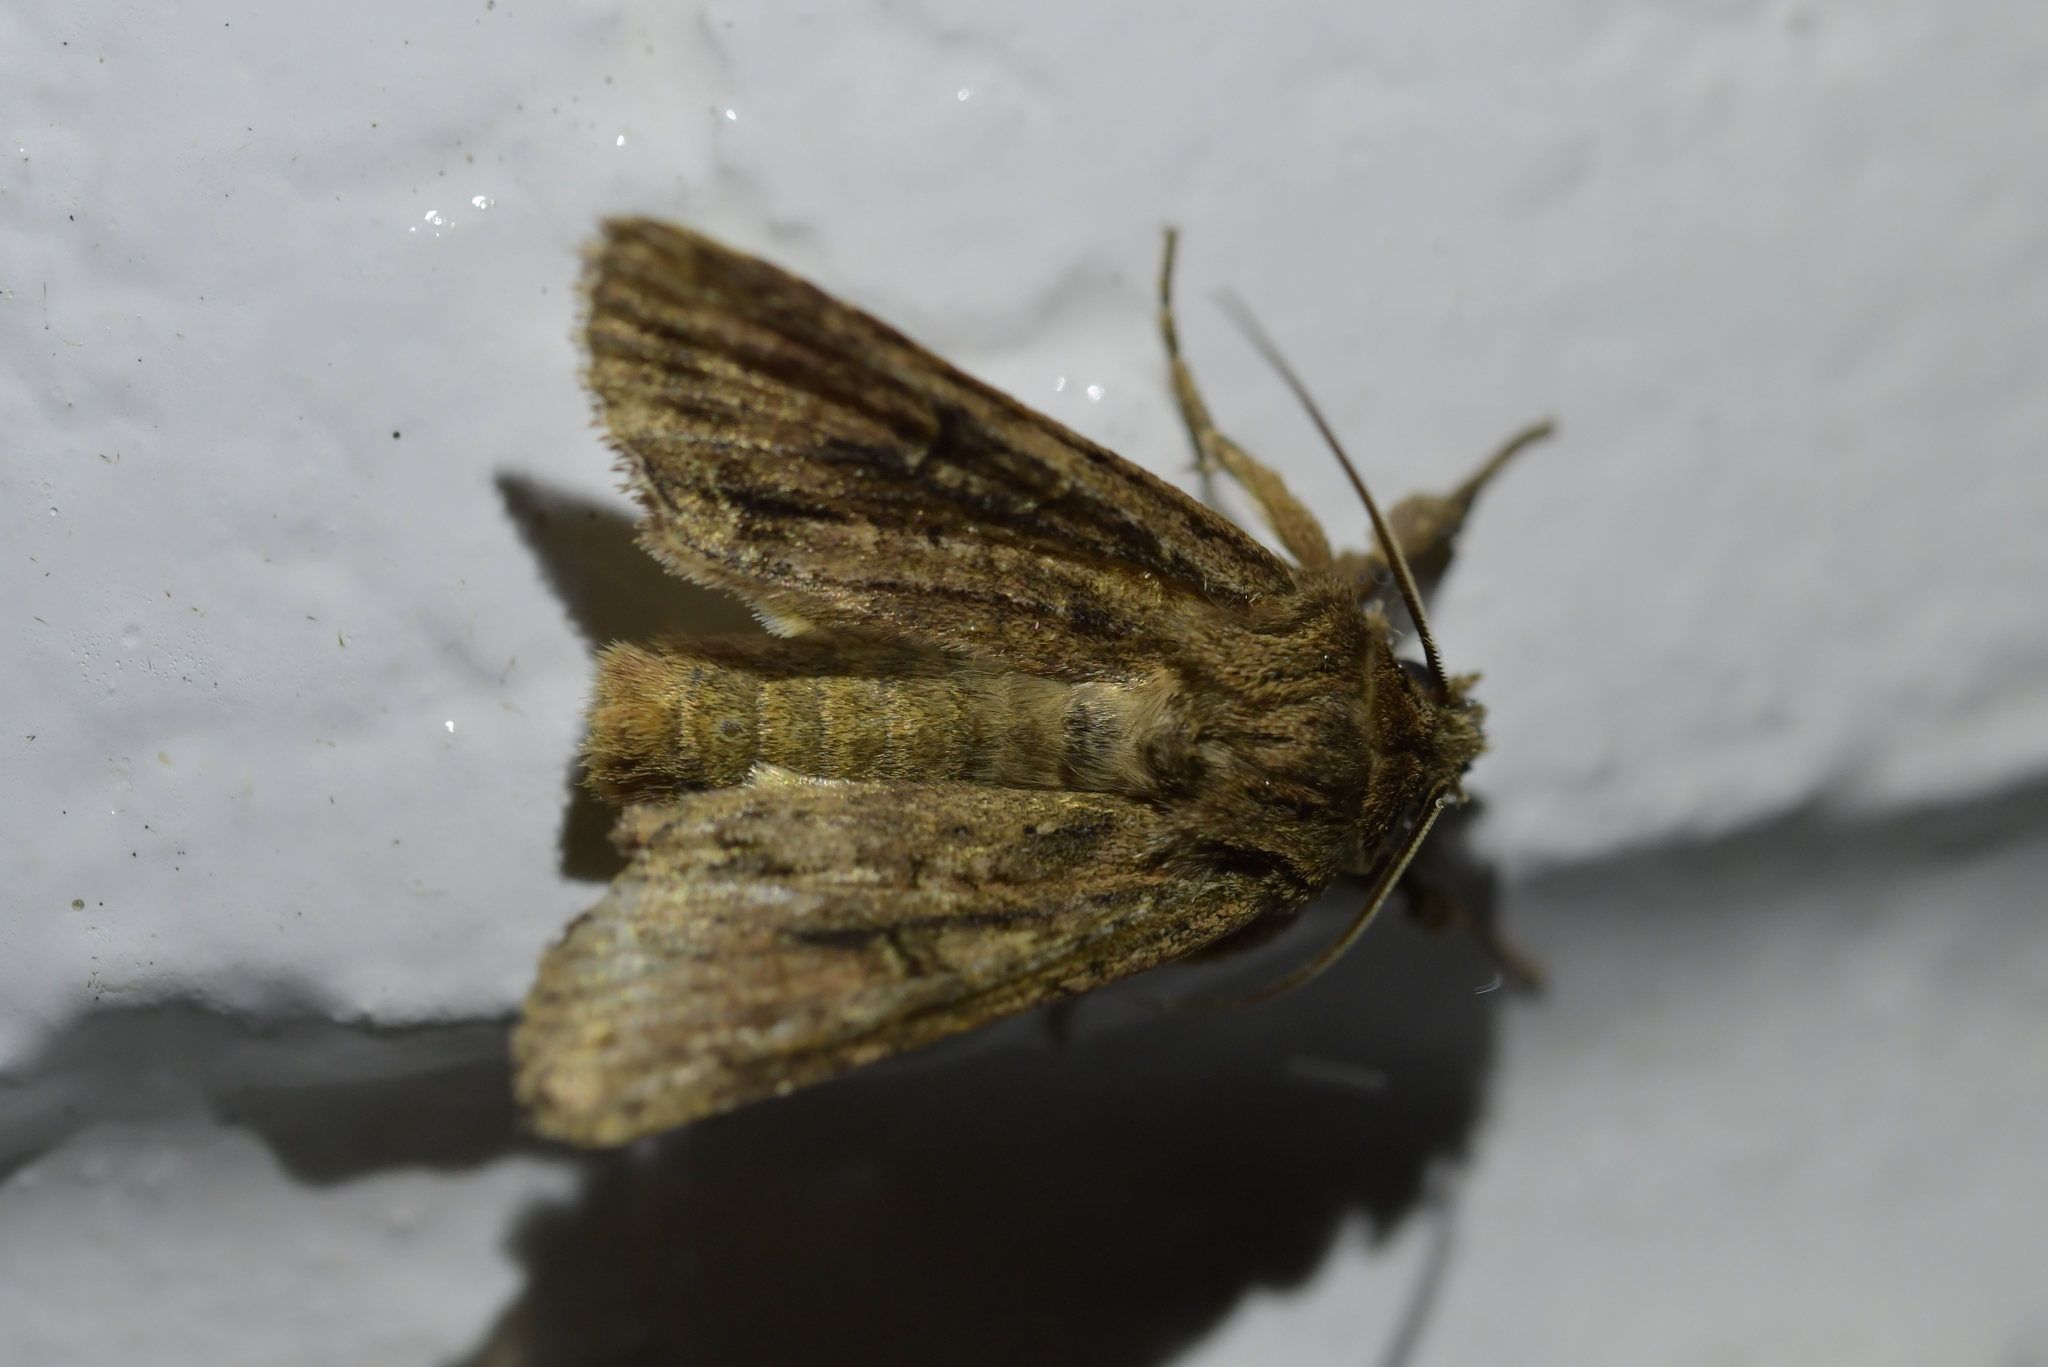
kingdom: Animalia
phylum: Arthropoda
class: Insecta
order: Lepidoptera
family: Noctuidae
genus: Ichneutica
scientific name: Ichneutica mutans
